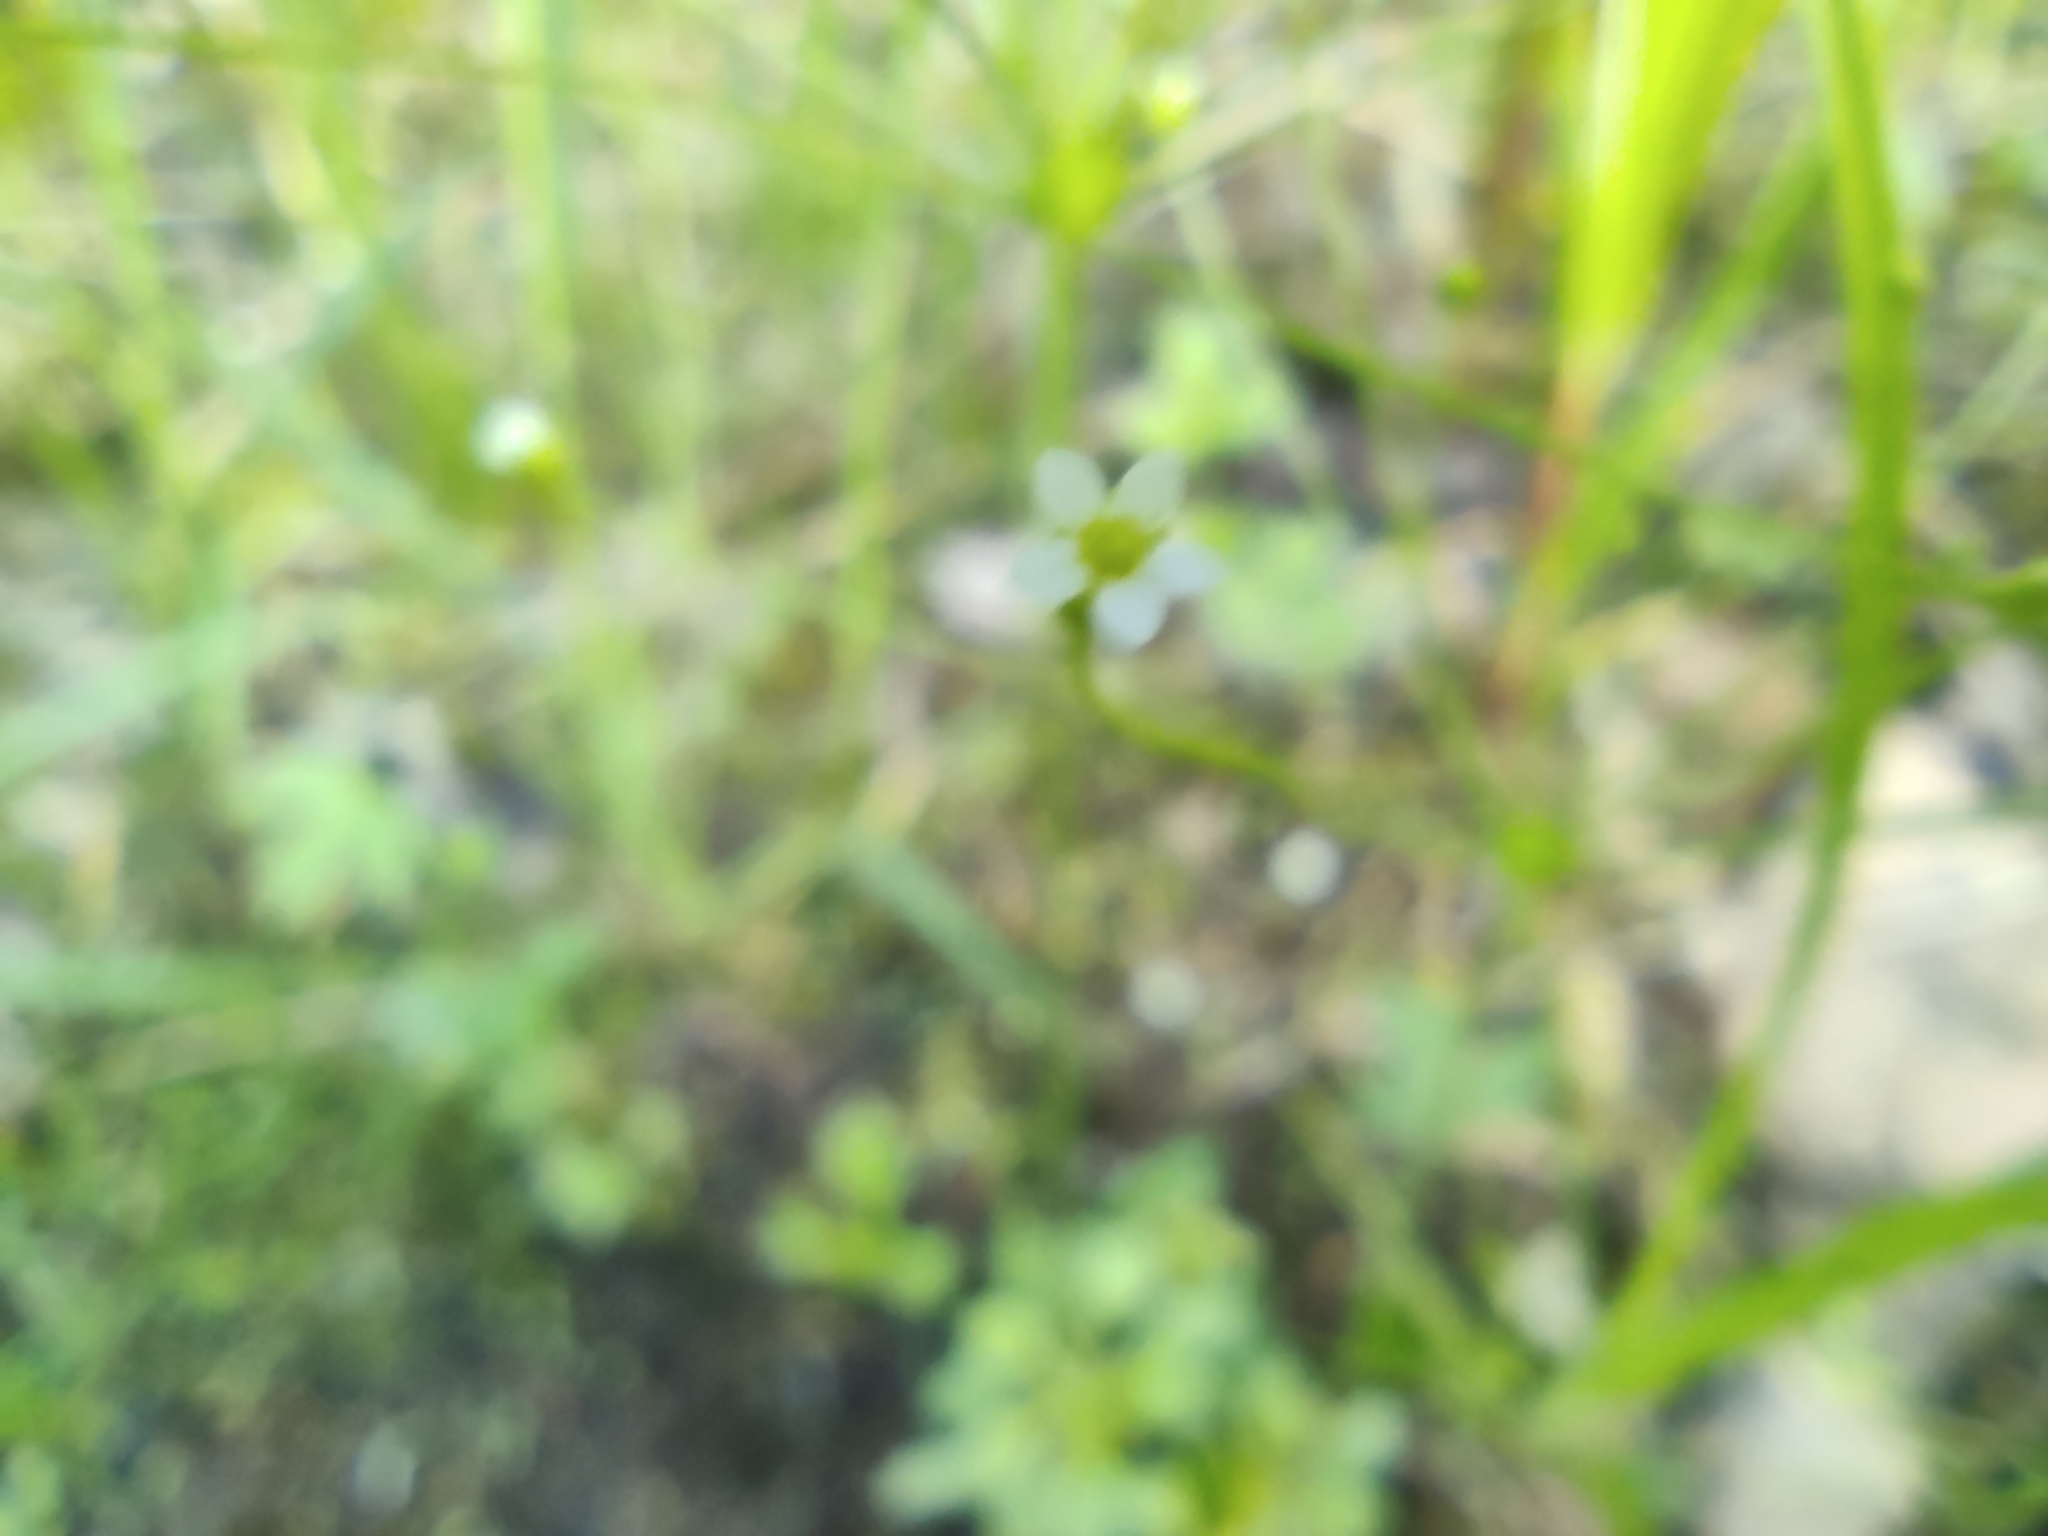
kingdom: Plantae
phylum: Tracheophyta
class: Magnoliopsida
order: Ericales
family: Primulaceae
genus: Androsace
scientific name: Androsace filiformis
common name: Filiform rock jasmine
